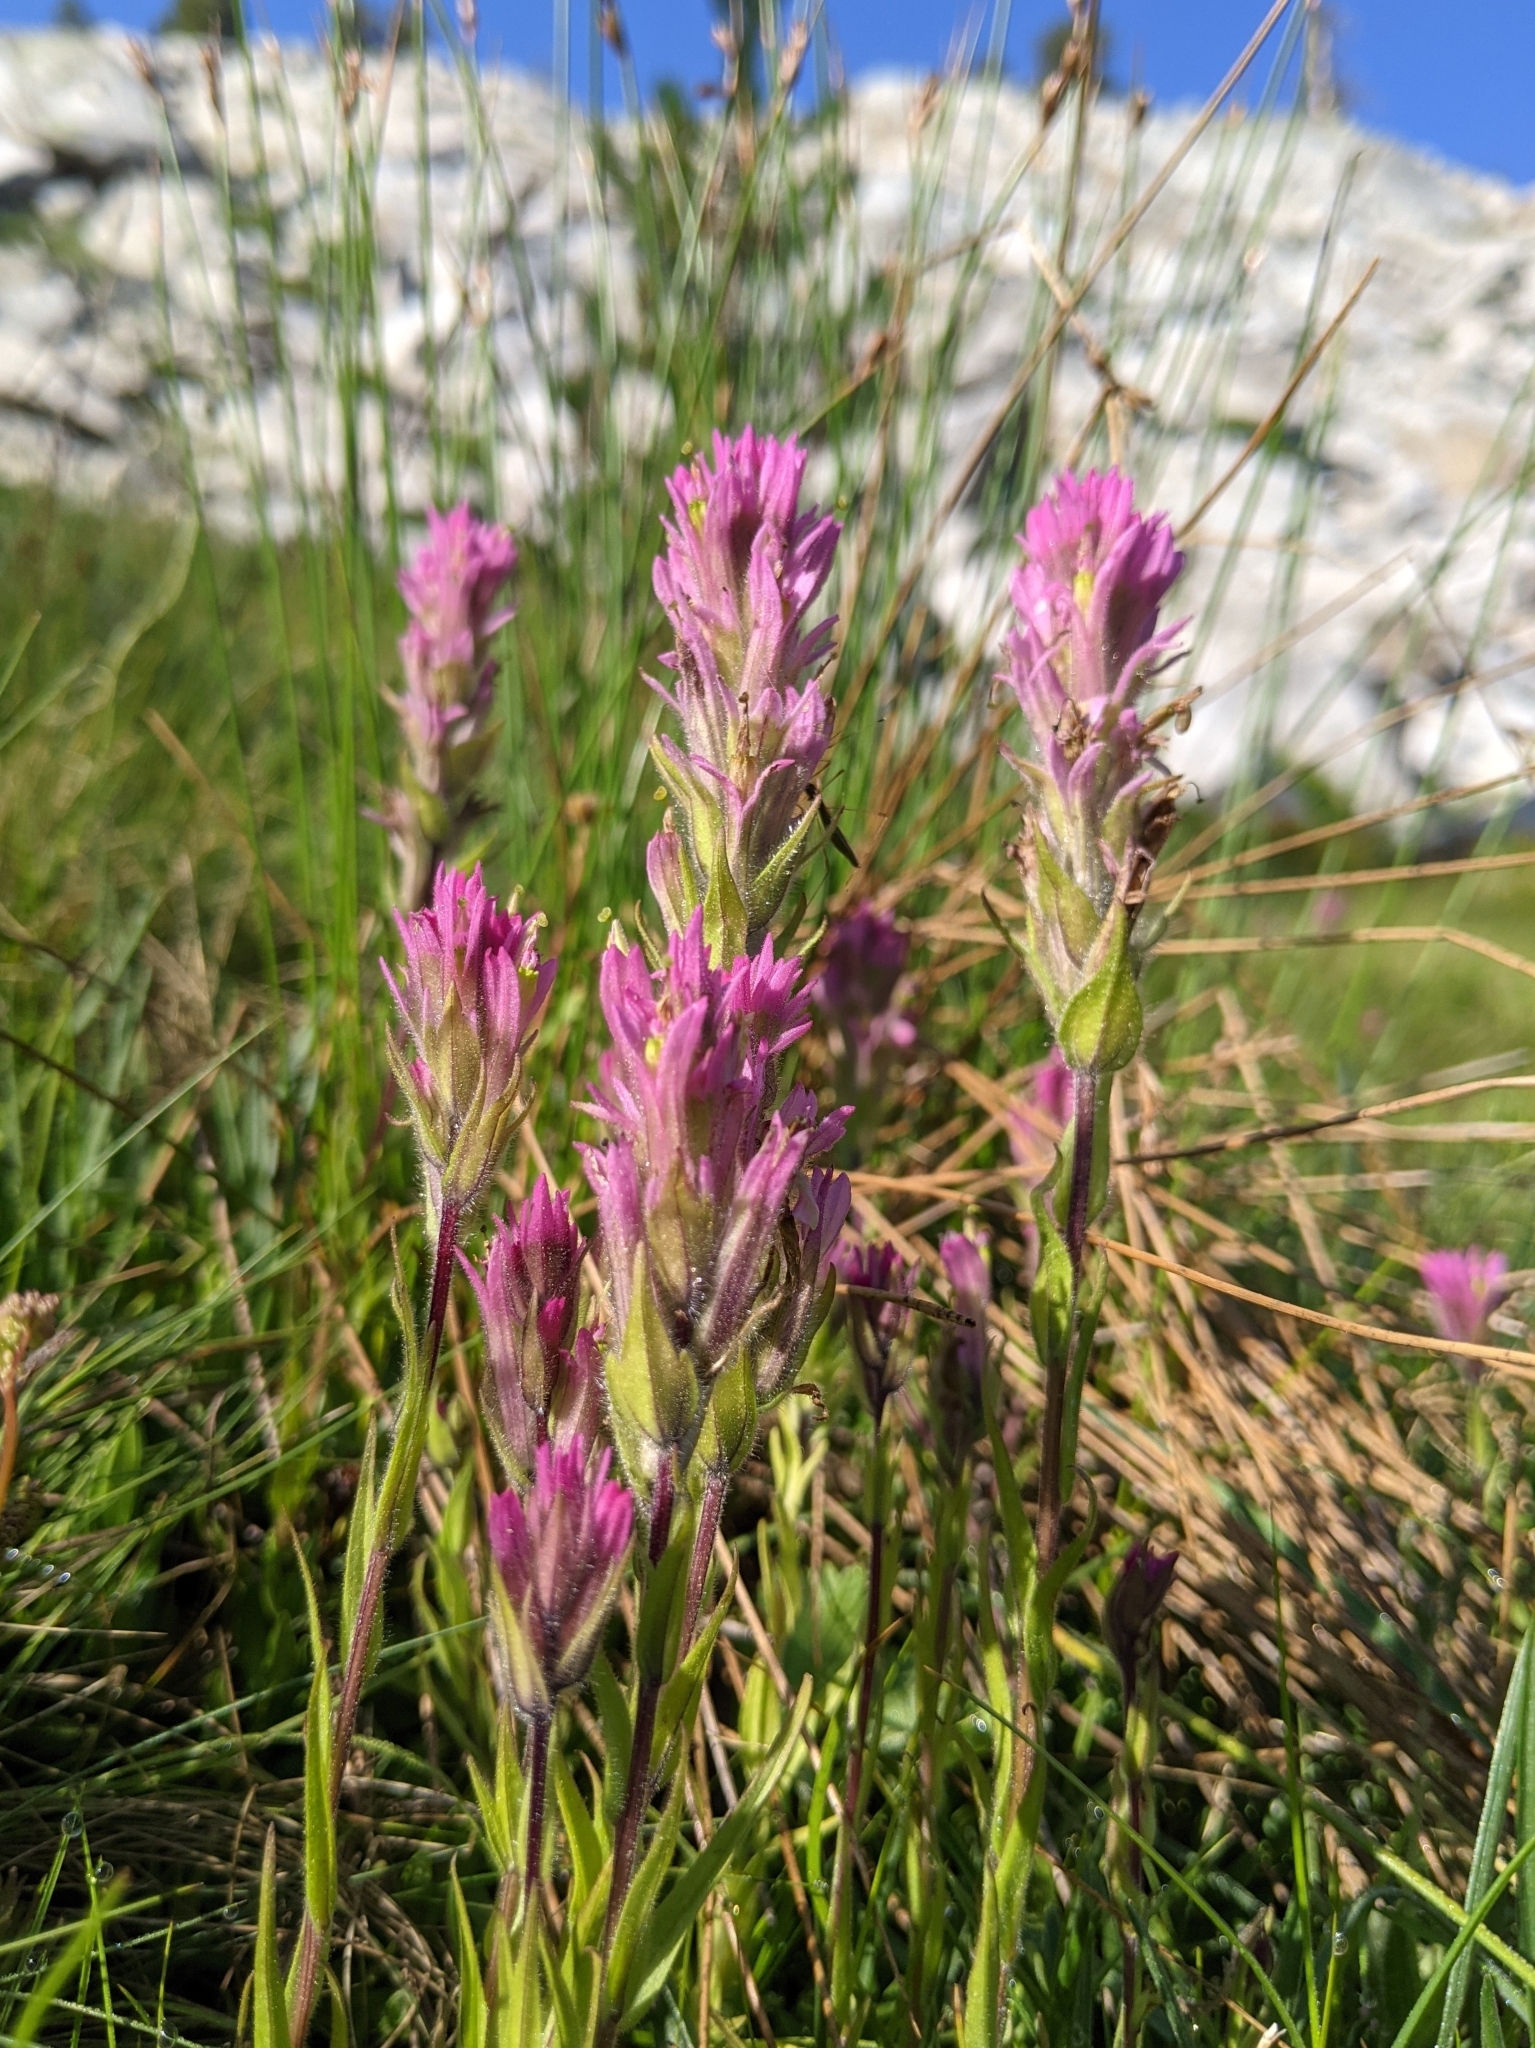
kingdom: Plantae
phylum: Tracheophyta
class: Magnoliopsida
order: Lamiales
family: Orobanchaceae
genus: Castilleja
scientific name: Castilleja lemmonii
